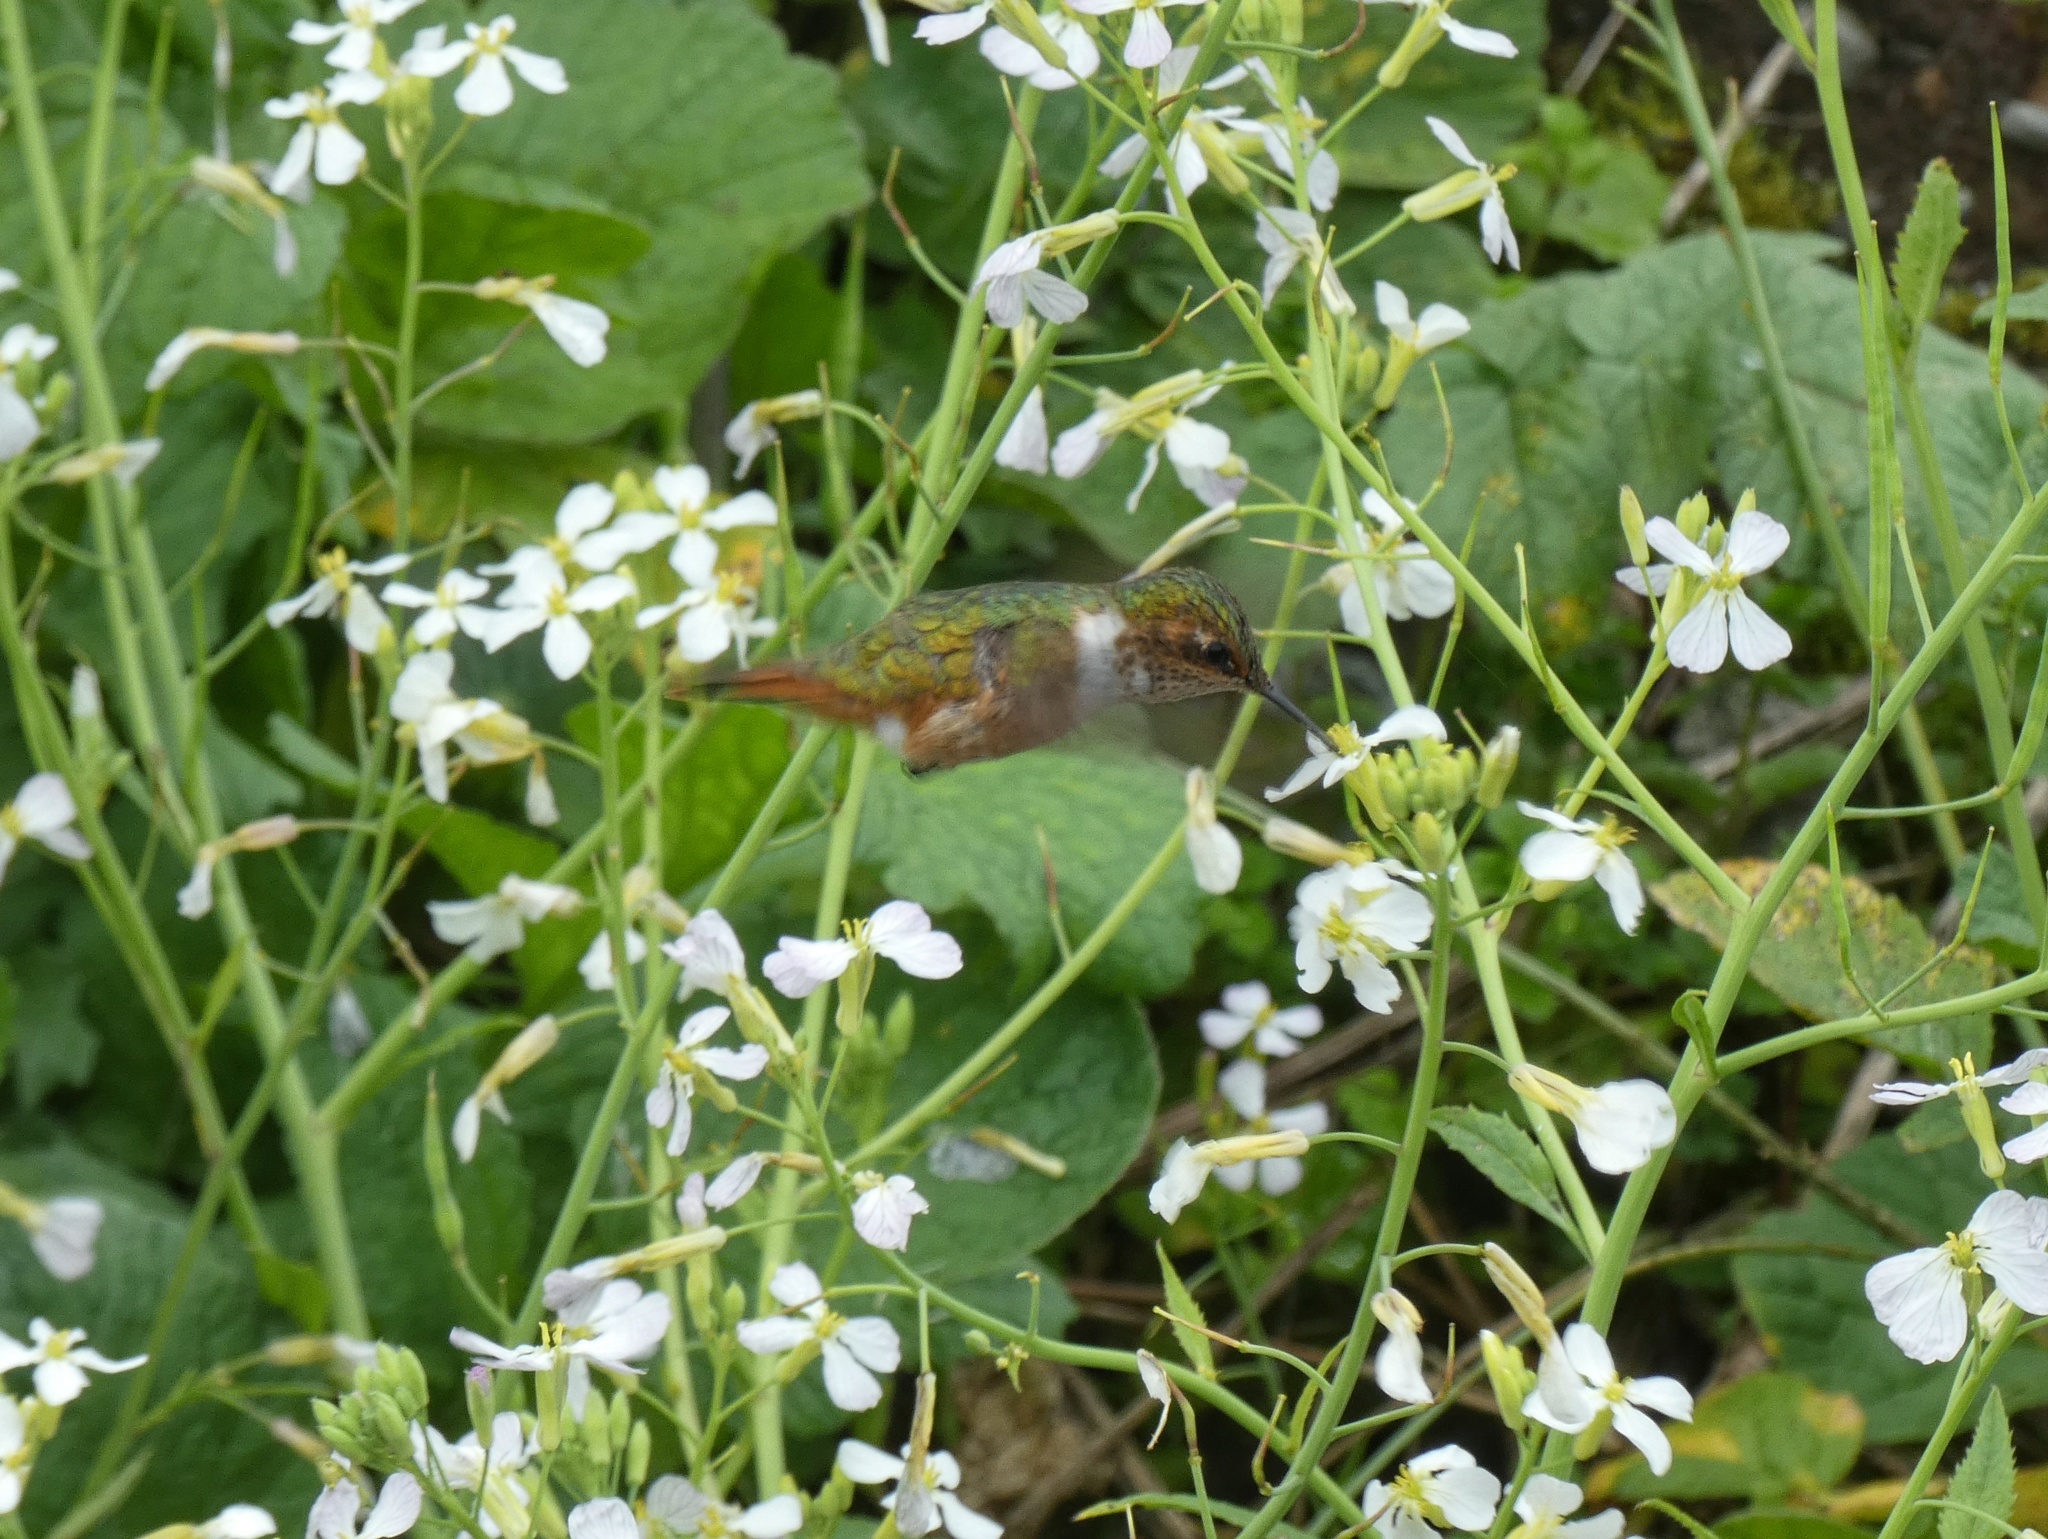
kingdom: Animalia
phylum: Chordata
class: Aves
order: Apodiformes
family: Trochilidae
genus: Selasphorus
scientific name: Selasphorus scintilla
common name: Scintillant hummingbird
